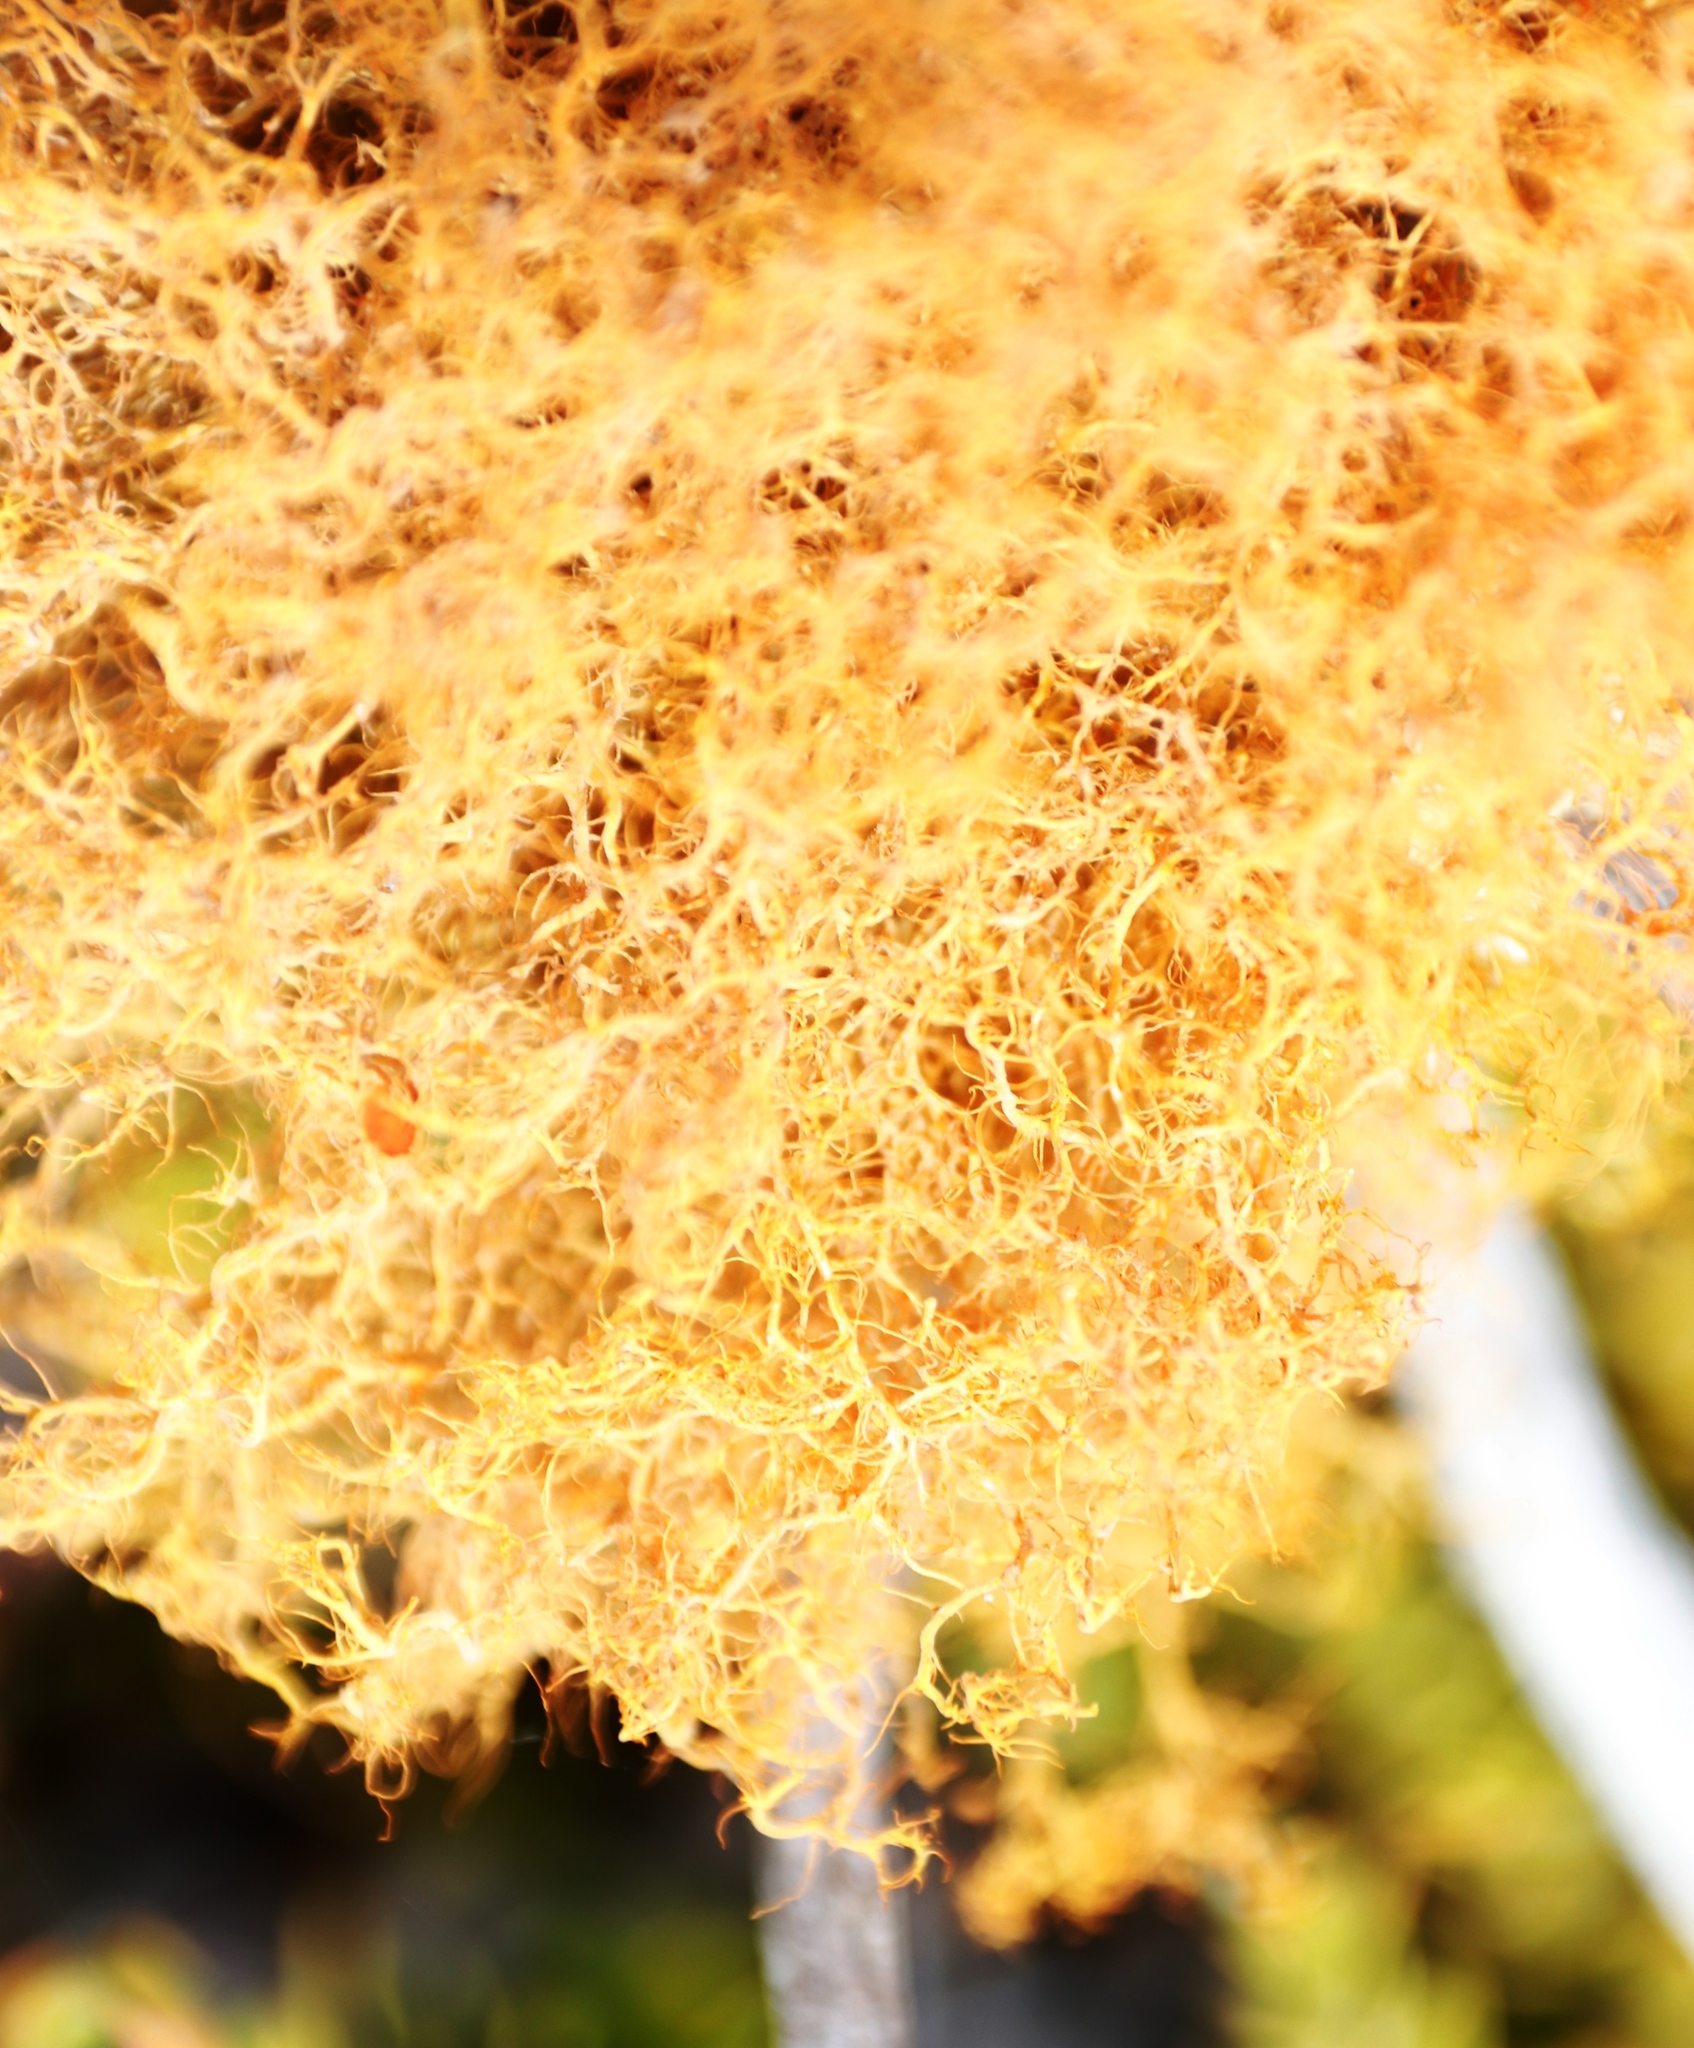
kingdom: Fungi
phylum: Ascomycota
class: Lecanoromycetes
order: Teloschistales
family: Teloschistaceae
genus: Teloschistes
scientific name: Teloschistes flavicans
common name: Golden hair-lichen
